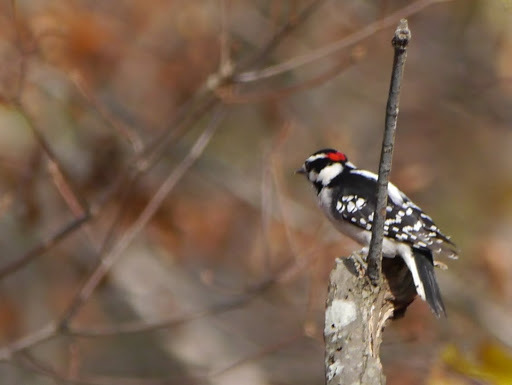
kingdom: Animalia
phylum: Chordata
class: Aves
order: Piciformes
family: Picidae
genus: Dryobates
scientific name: Dryobates pubescens
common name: Downy woodpecker
